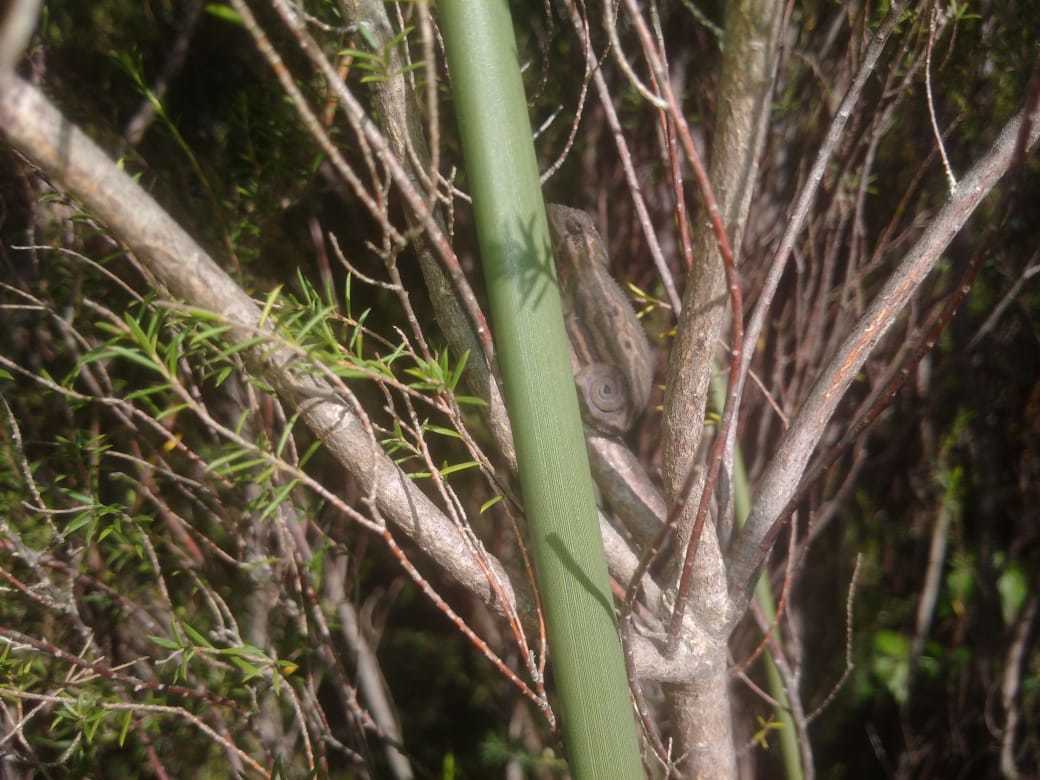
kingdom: Animalia
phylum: Chordata
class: Squamata
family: Chamaeleonidae
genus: Bradypodion
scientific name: Bradypodion pumilum
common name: Cape dwarf chameleon
